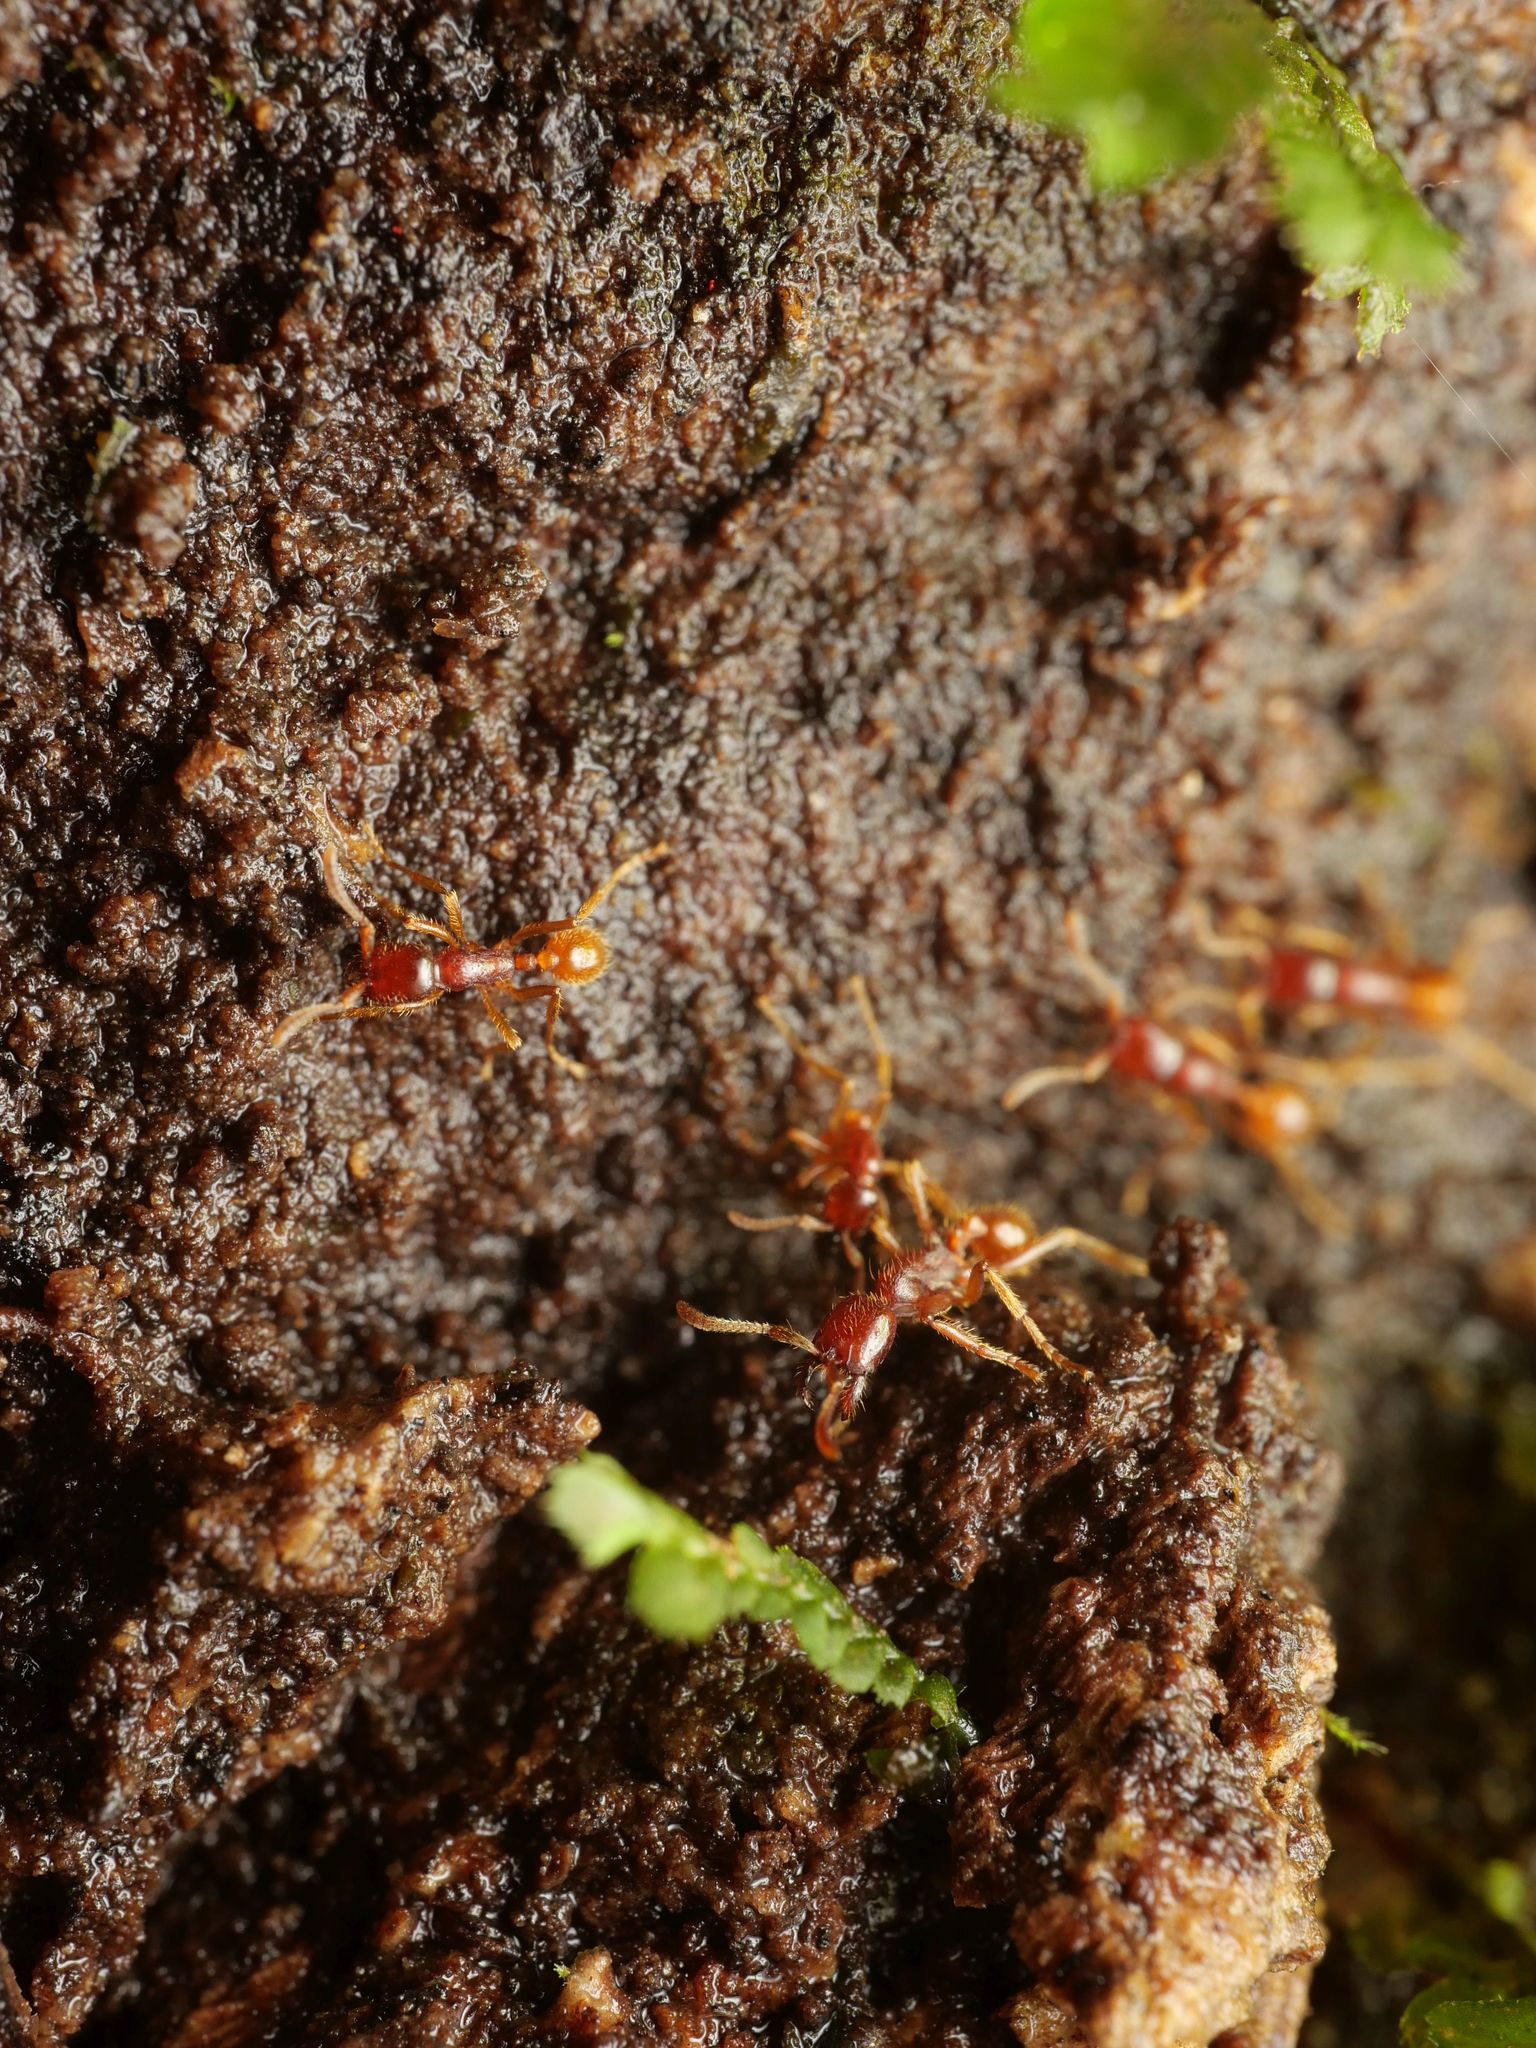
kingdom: Animalia
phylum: Arthropoda
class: Insecta
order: Hymenoptera
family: Formicidae
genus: Labidus
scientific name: Labidus coecus
